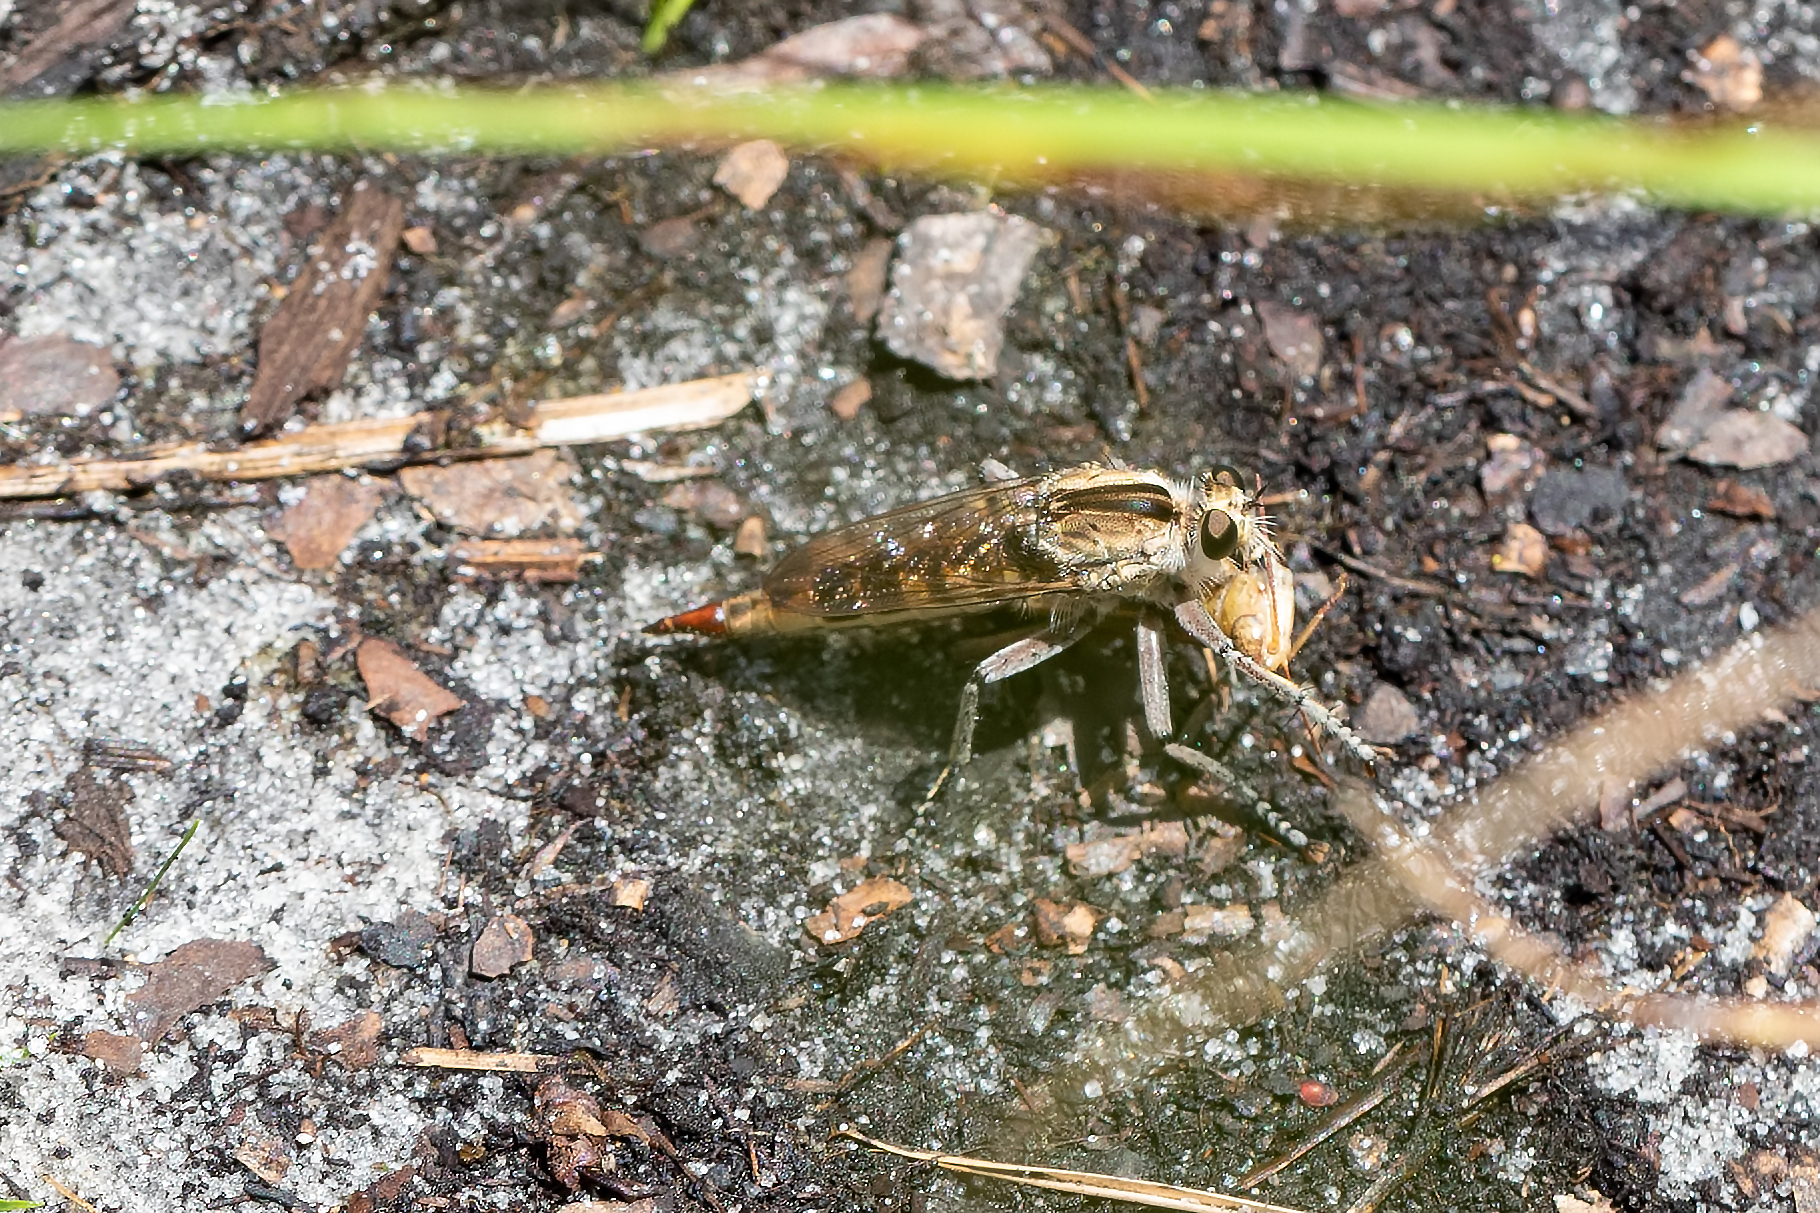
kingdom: Animalia
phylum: Arthropoda
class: Insecta
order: Diptera
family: Asilidae
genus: Triorla
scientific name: Triorla interrupta
